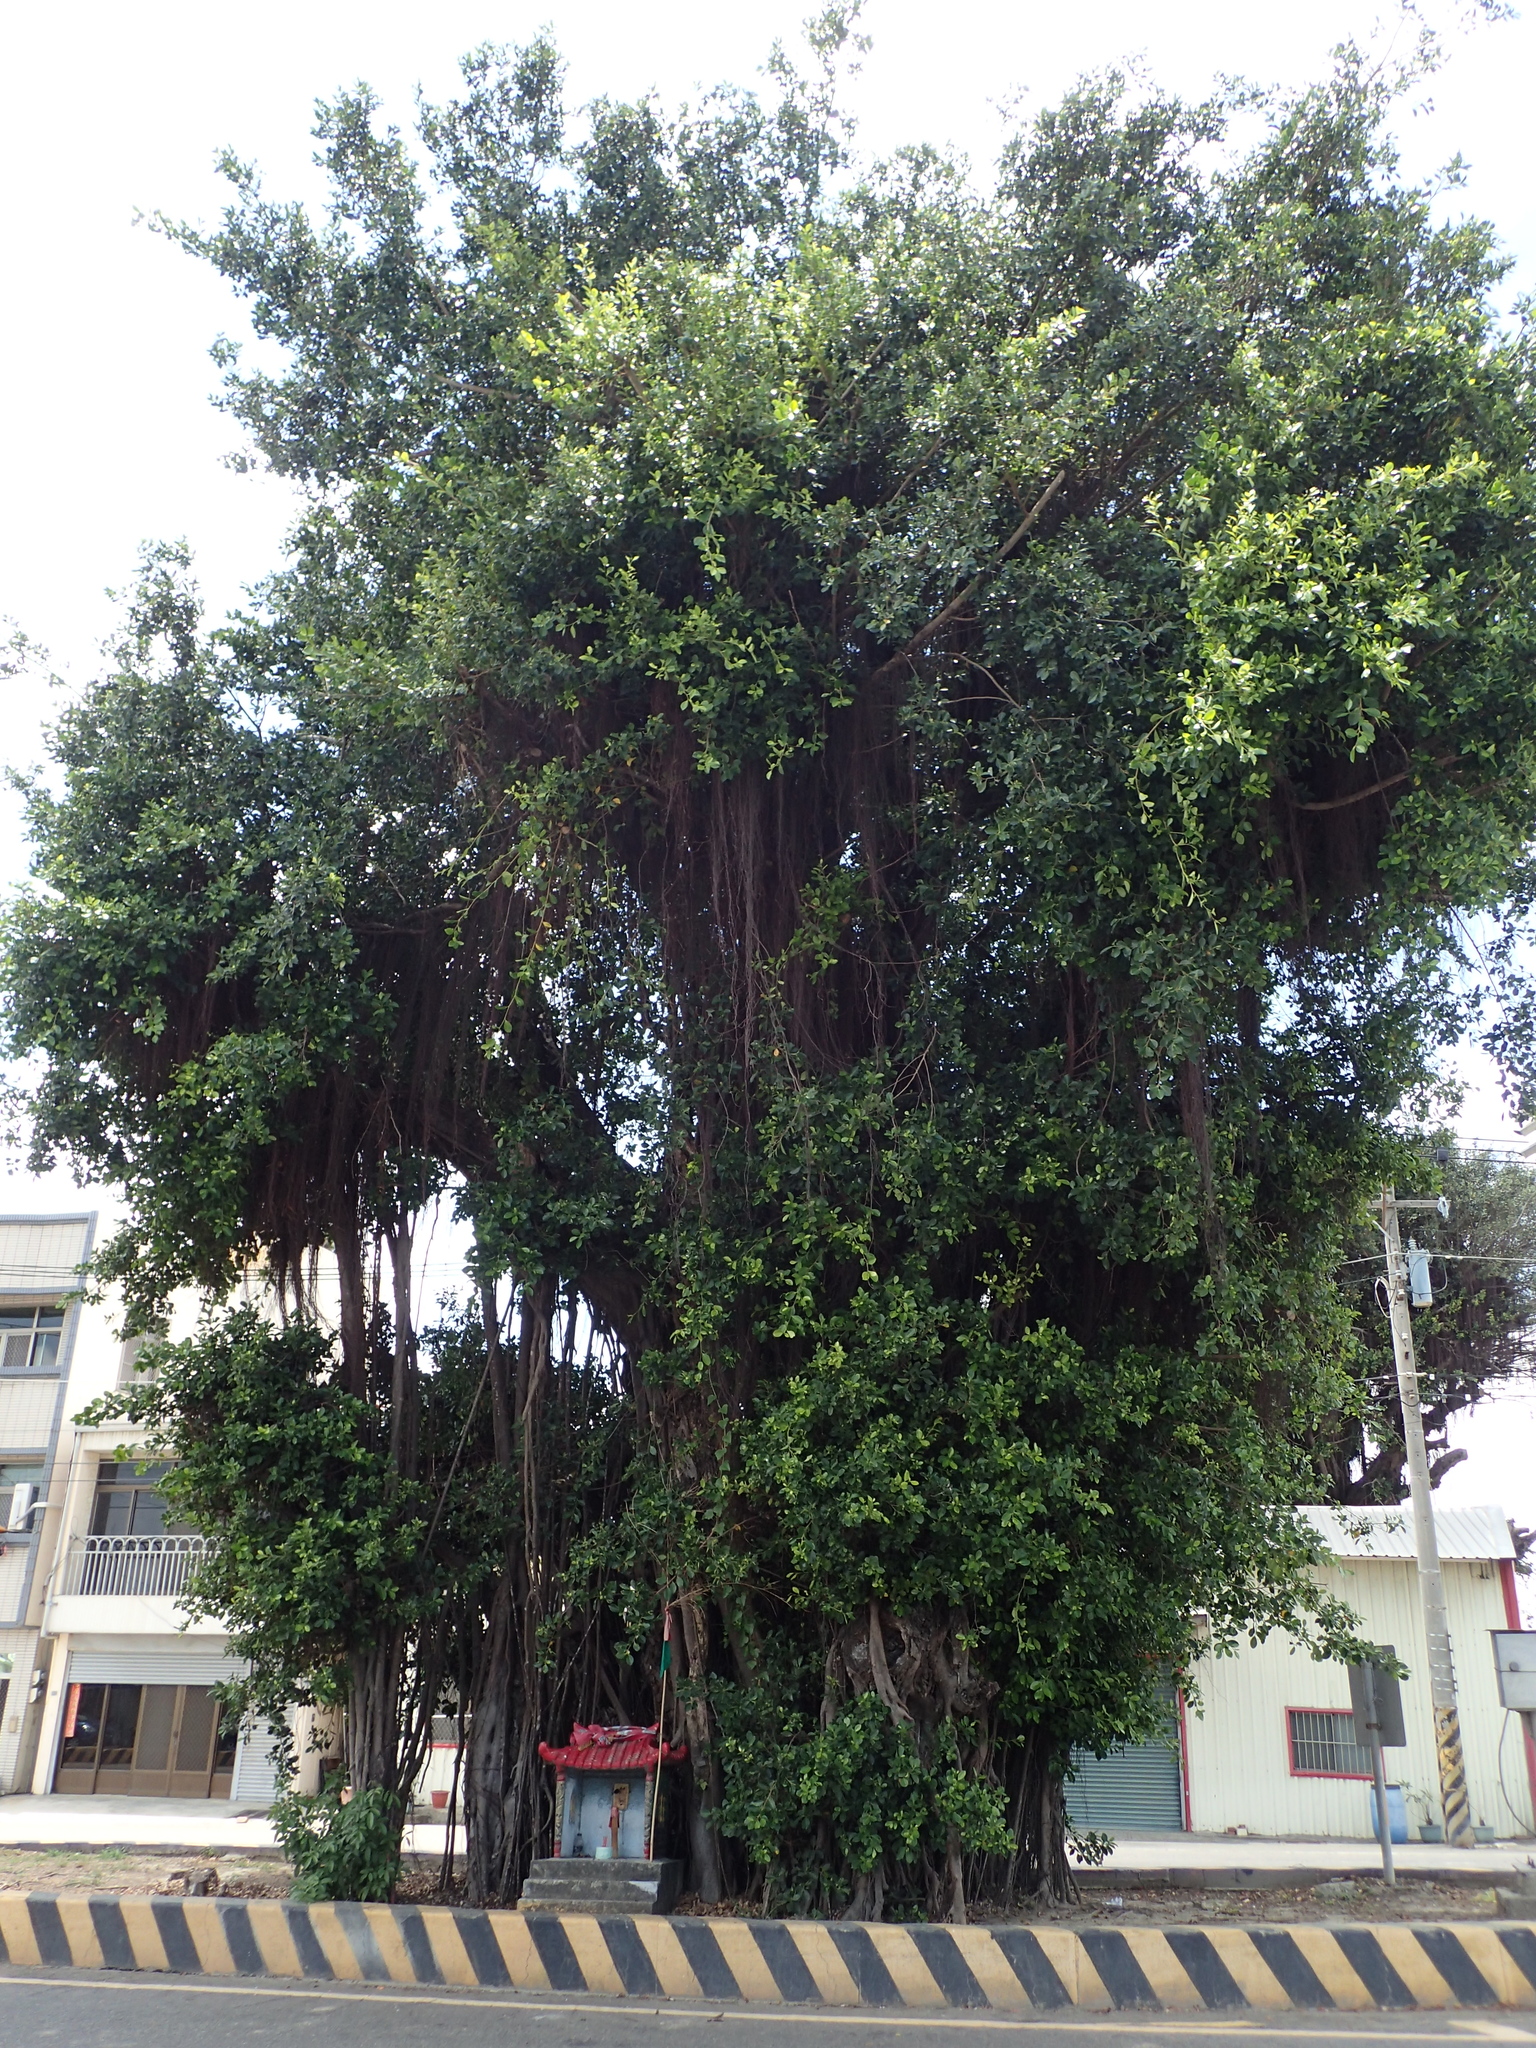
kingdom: Plantae
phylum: Tracheophyta
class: Magnoliopsida
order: Rosales
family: Moraceae
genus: Ficus
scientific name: Ficus microcarpa
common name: Chinese banyan
